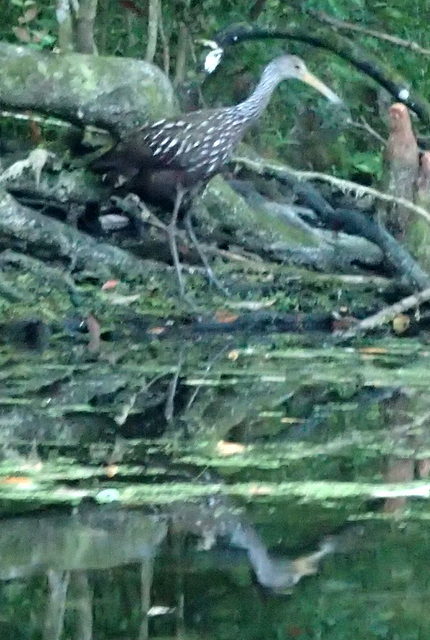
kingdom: Animalia
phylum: Chordata
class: Aves
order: Gruiformes
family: Aramidae
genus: Aramus
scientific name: Aramus guarauna
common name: Limpkin
